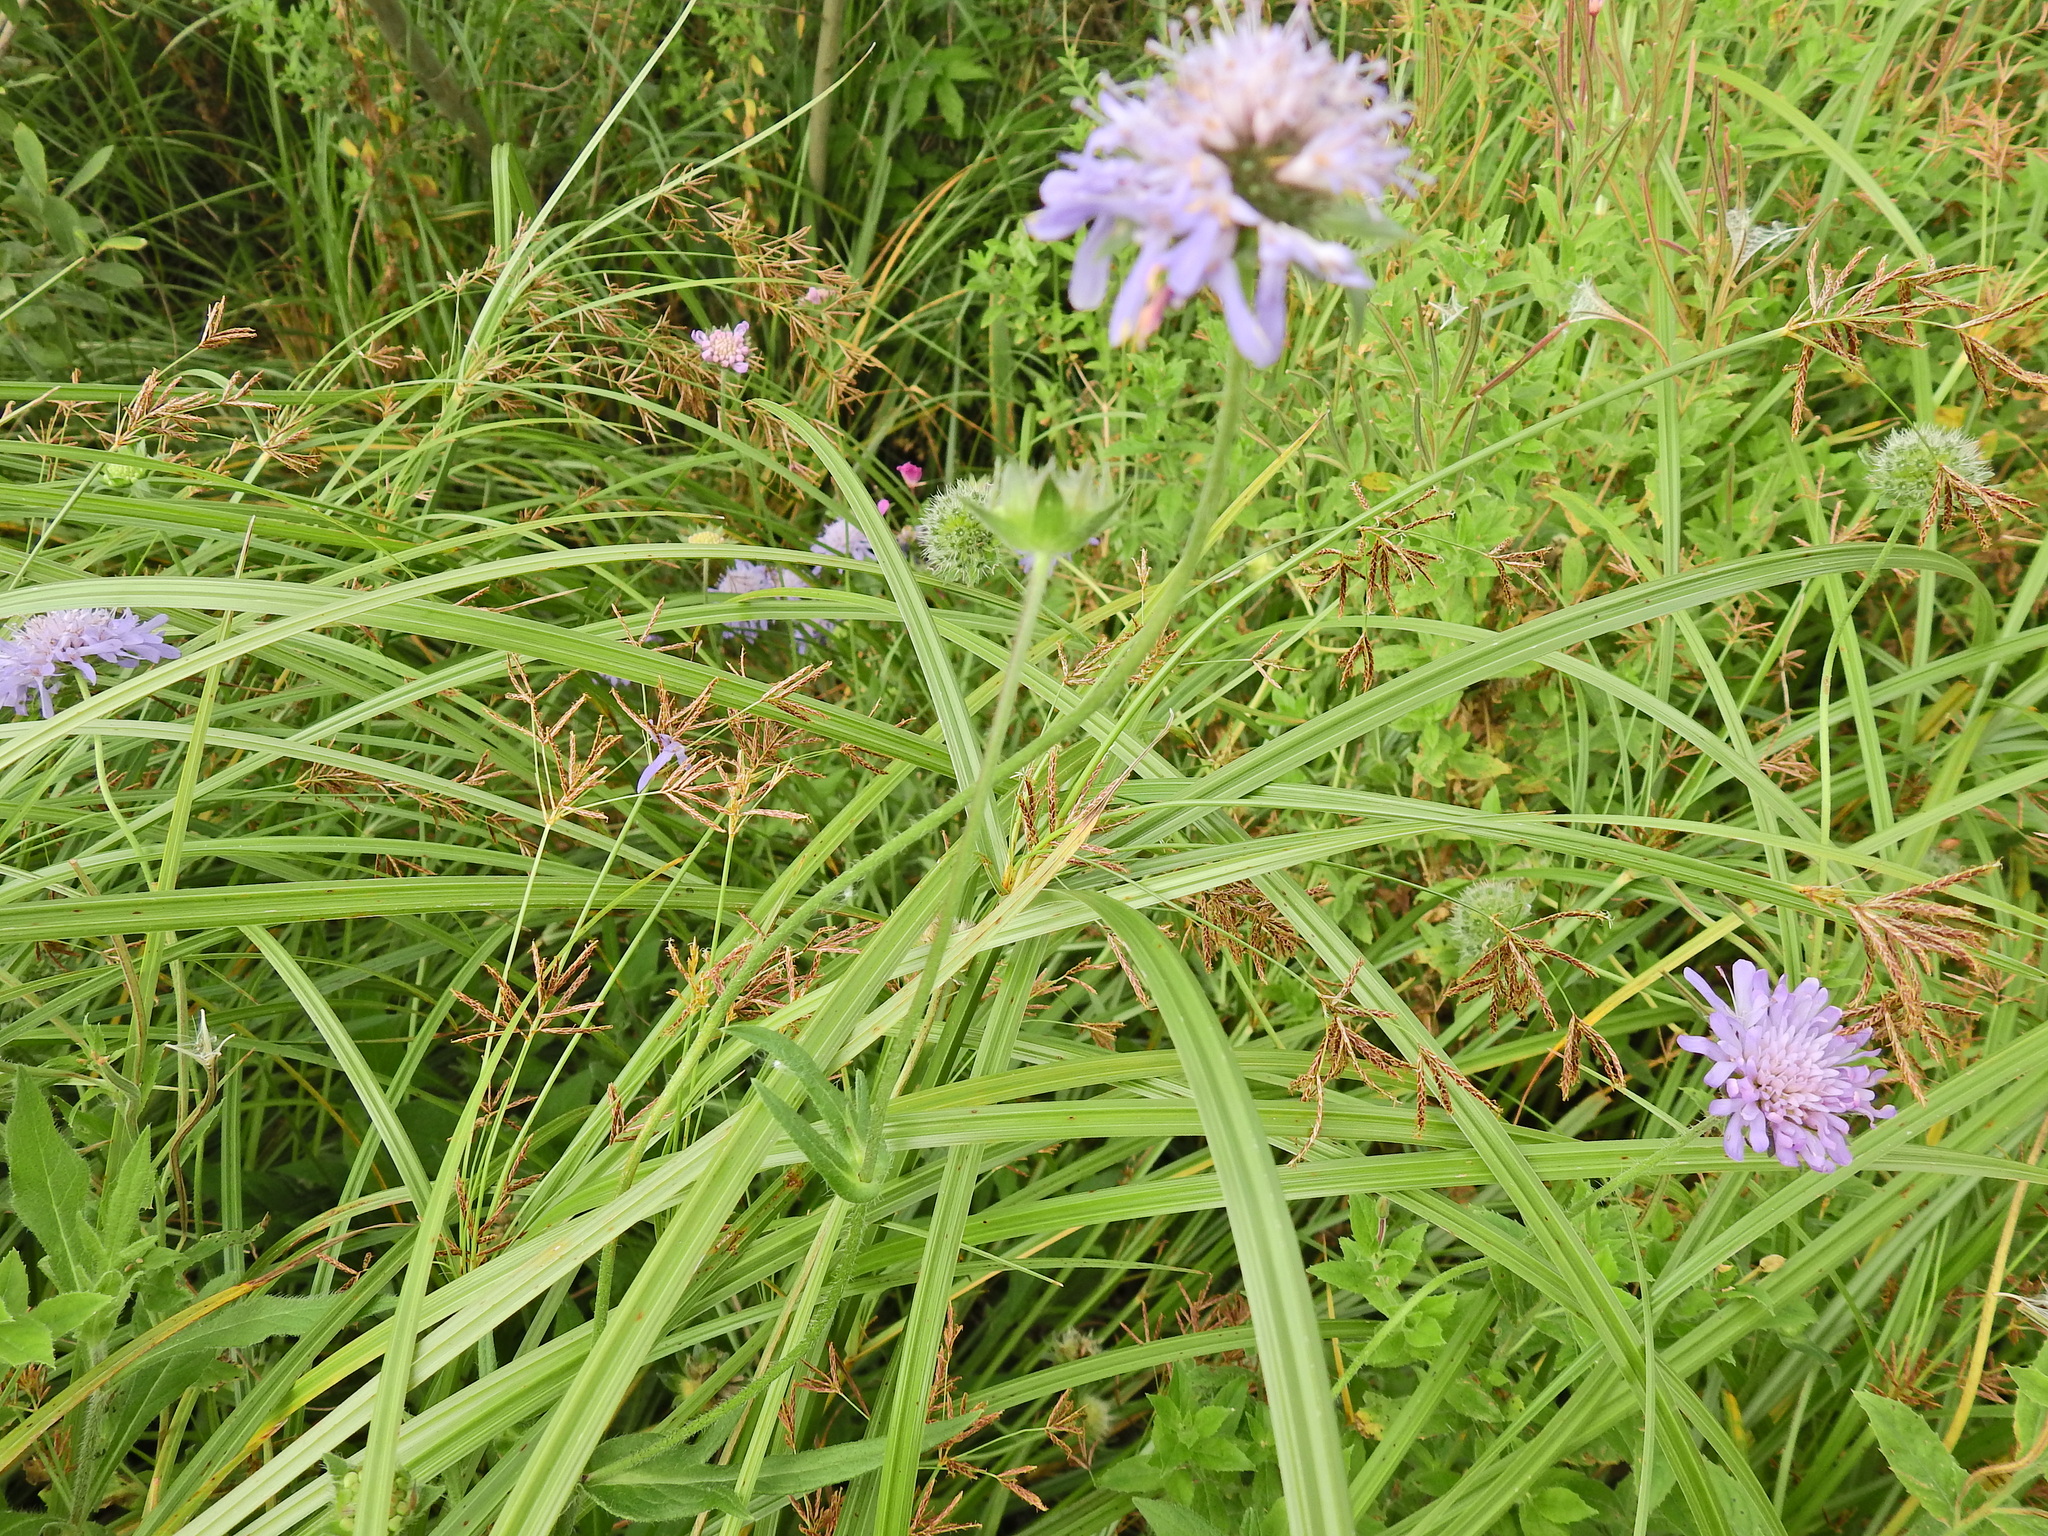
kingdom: Plantae
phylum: Tracheophyta
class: Magnoliopsida
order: Dipsacales
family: Caprifoliaceae
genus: Knautia
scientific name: Knautia arvensis
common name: Field scabiosa
